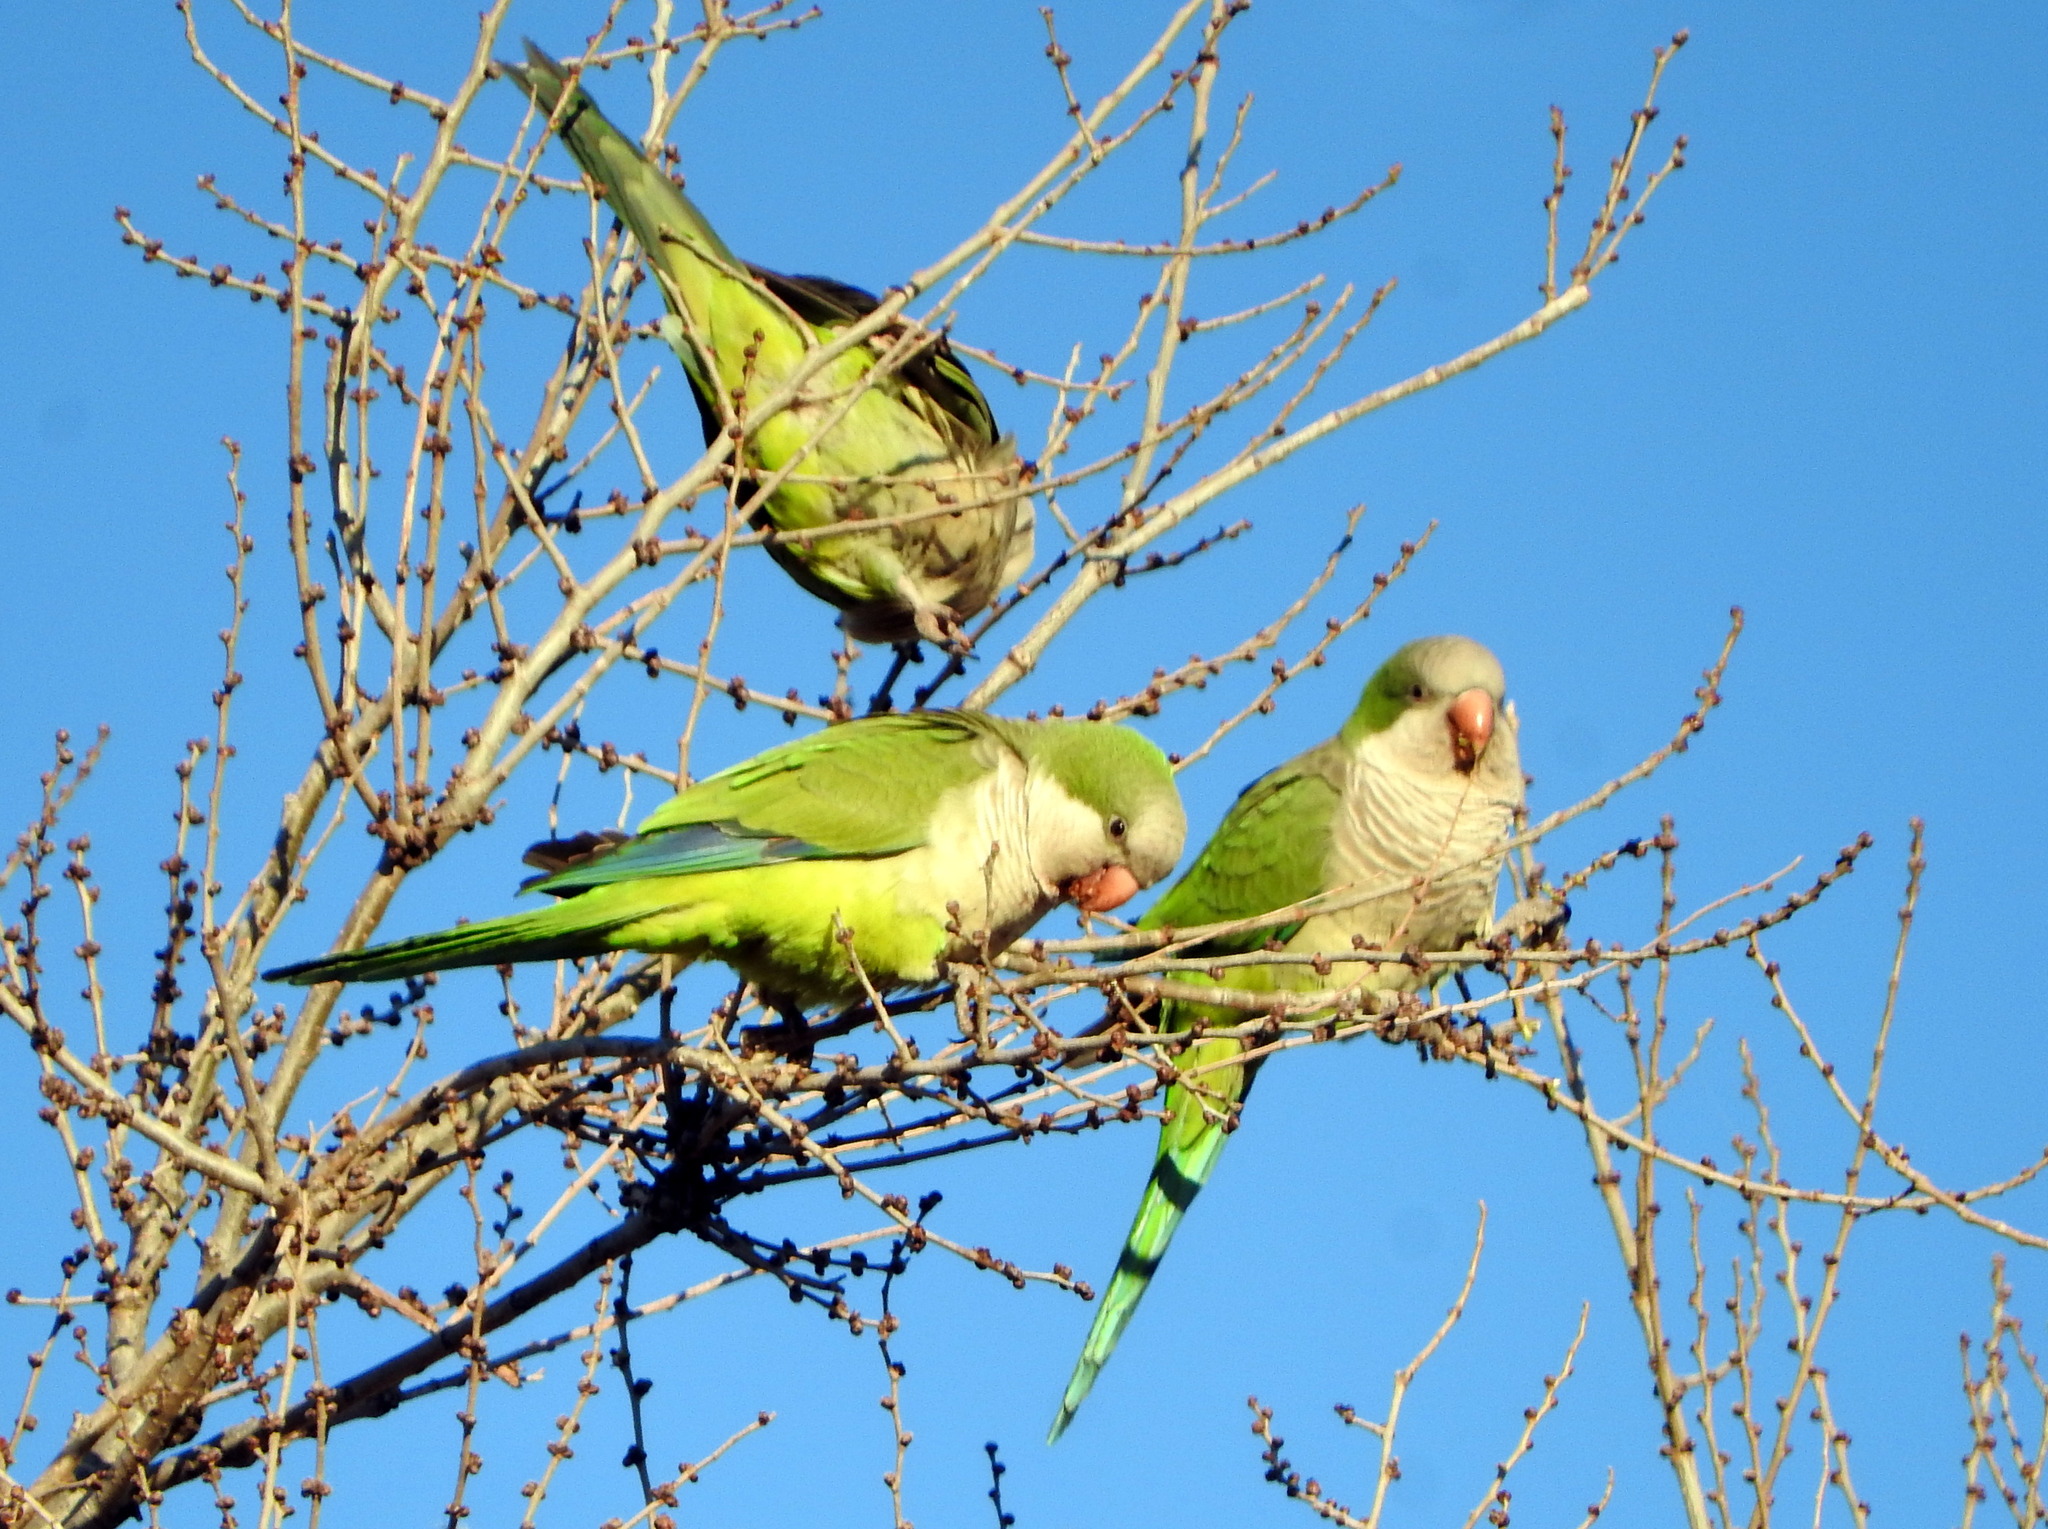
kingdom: Animalia
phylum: Chordata
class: Aves
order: Psittaciformes
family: Psittacidae
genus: Myiopsitta
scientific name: Myiopsitta monachus
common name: Monk parakeet
